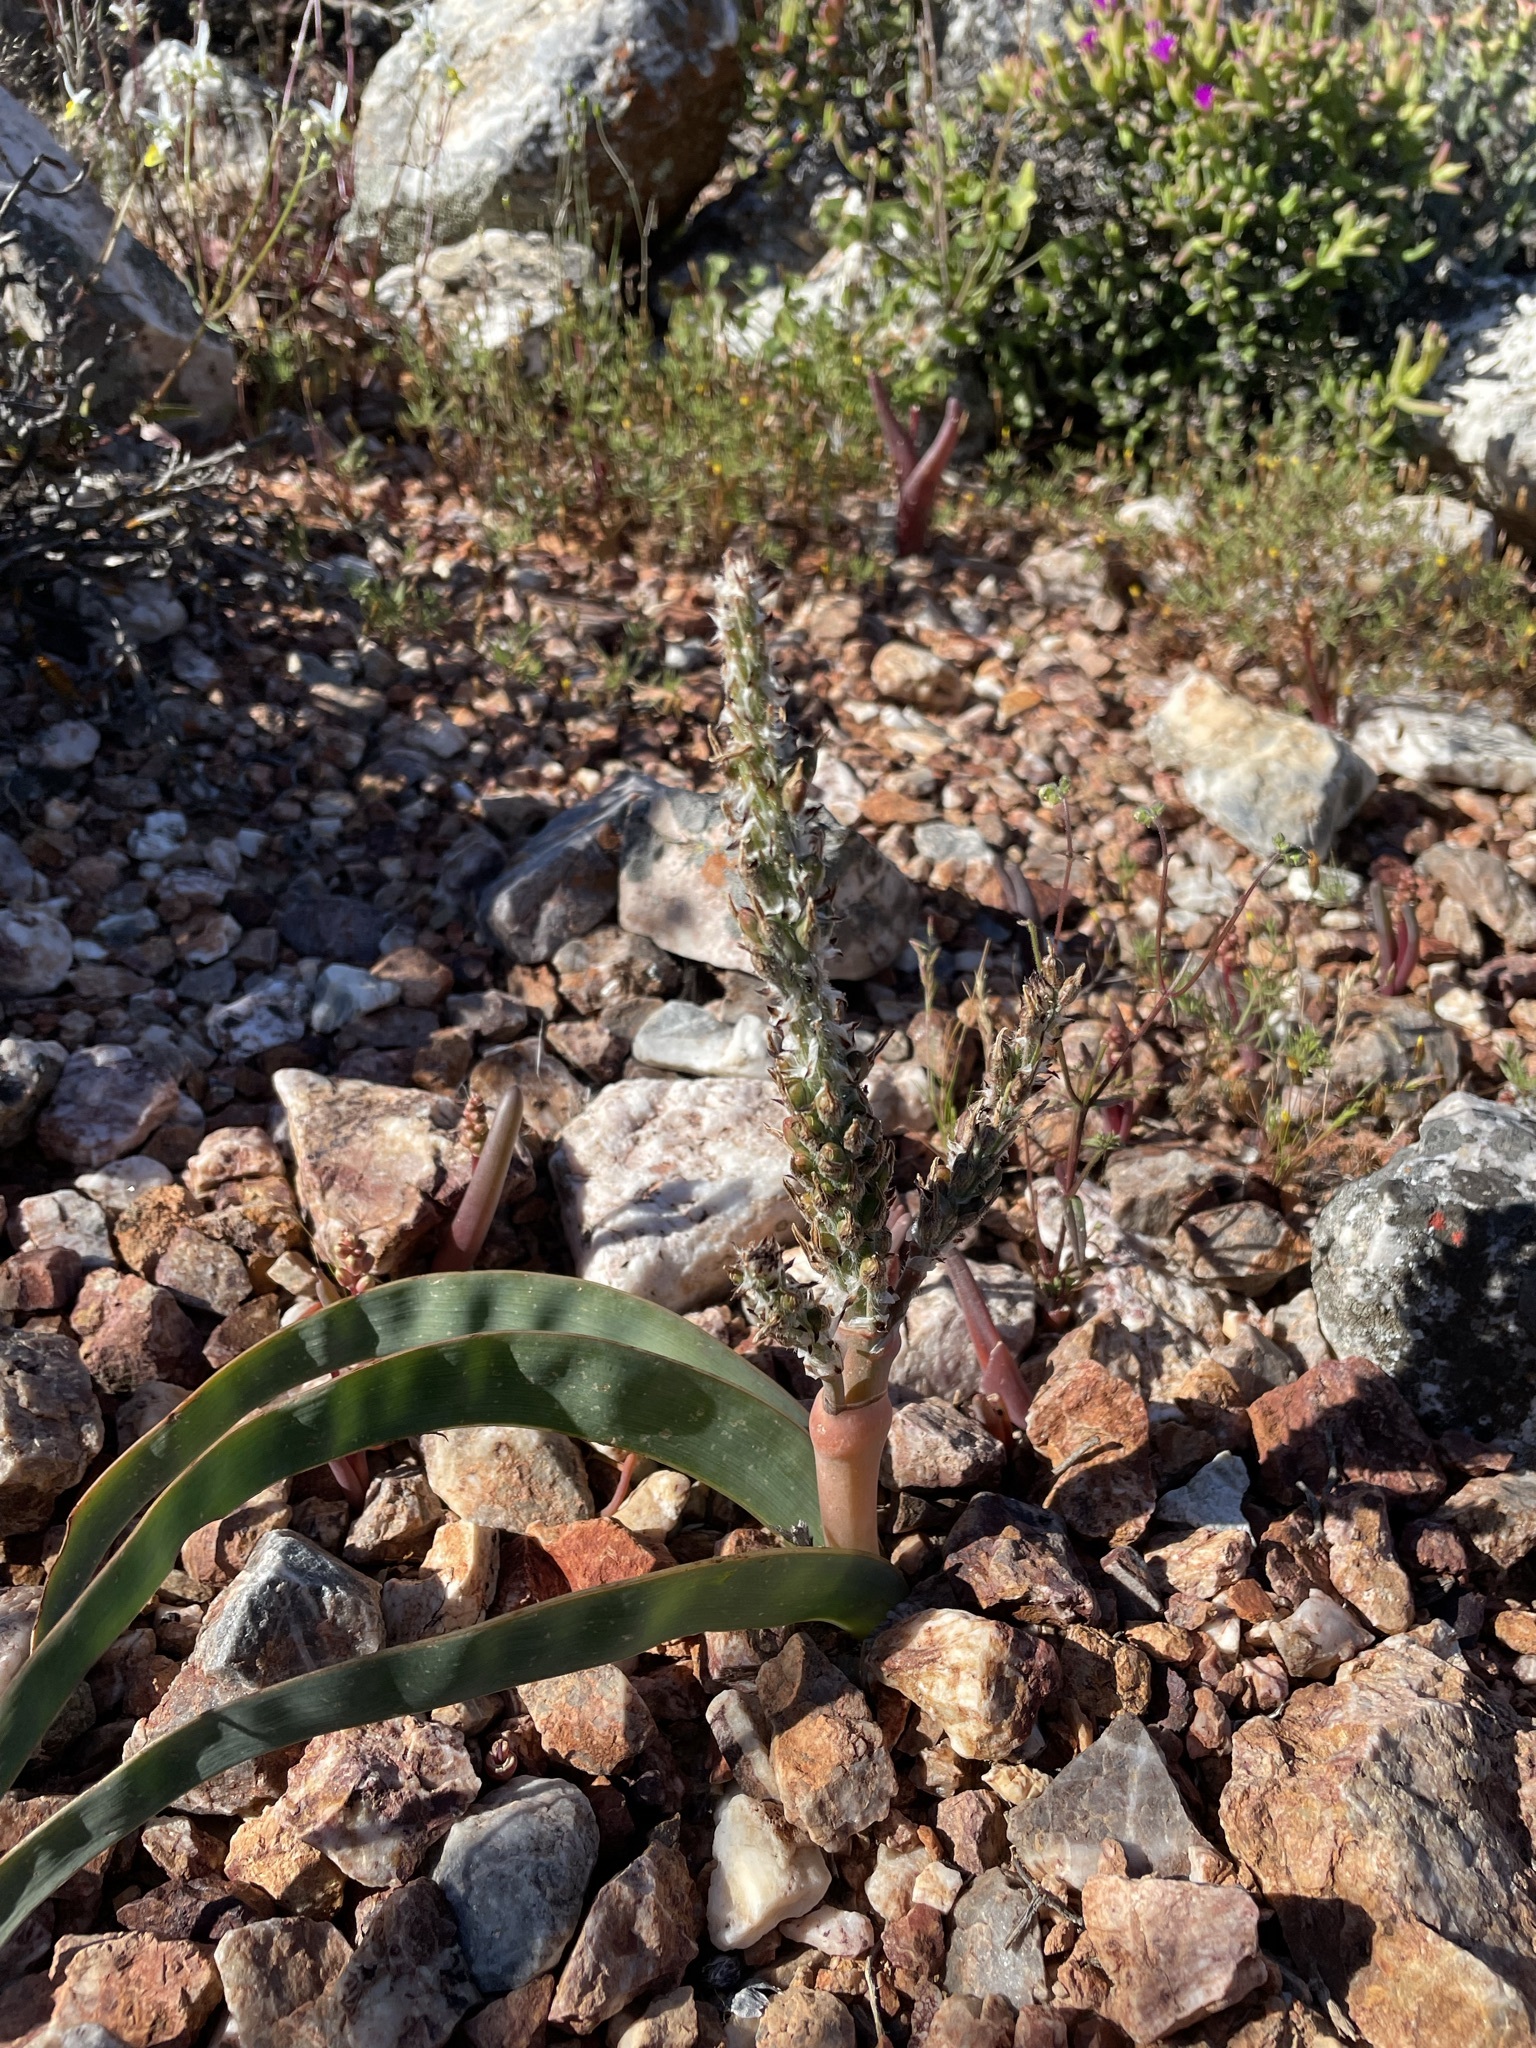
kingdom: Plantae
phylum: Tracheophyta
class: Liliopsida
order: Asparagales
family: Asphodelaceae
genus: Trachyandra
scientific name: Trachyandra falcata
